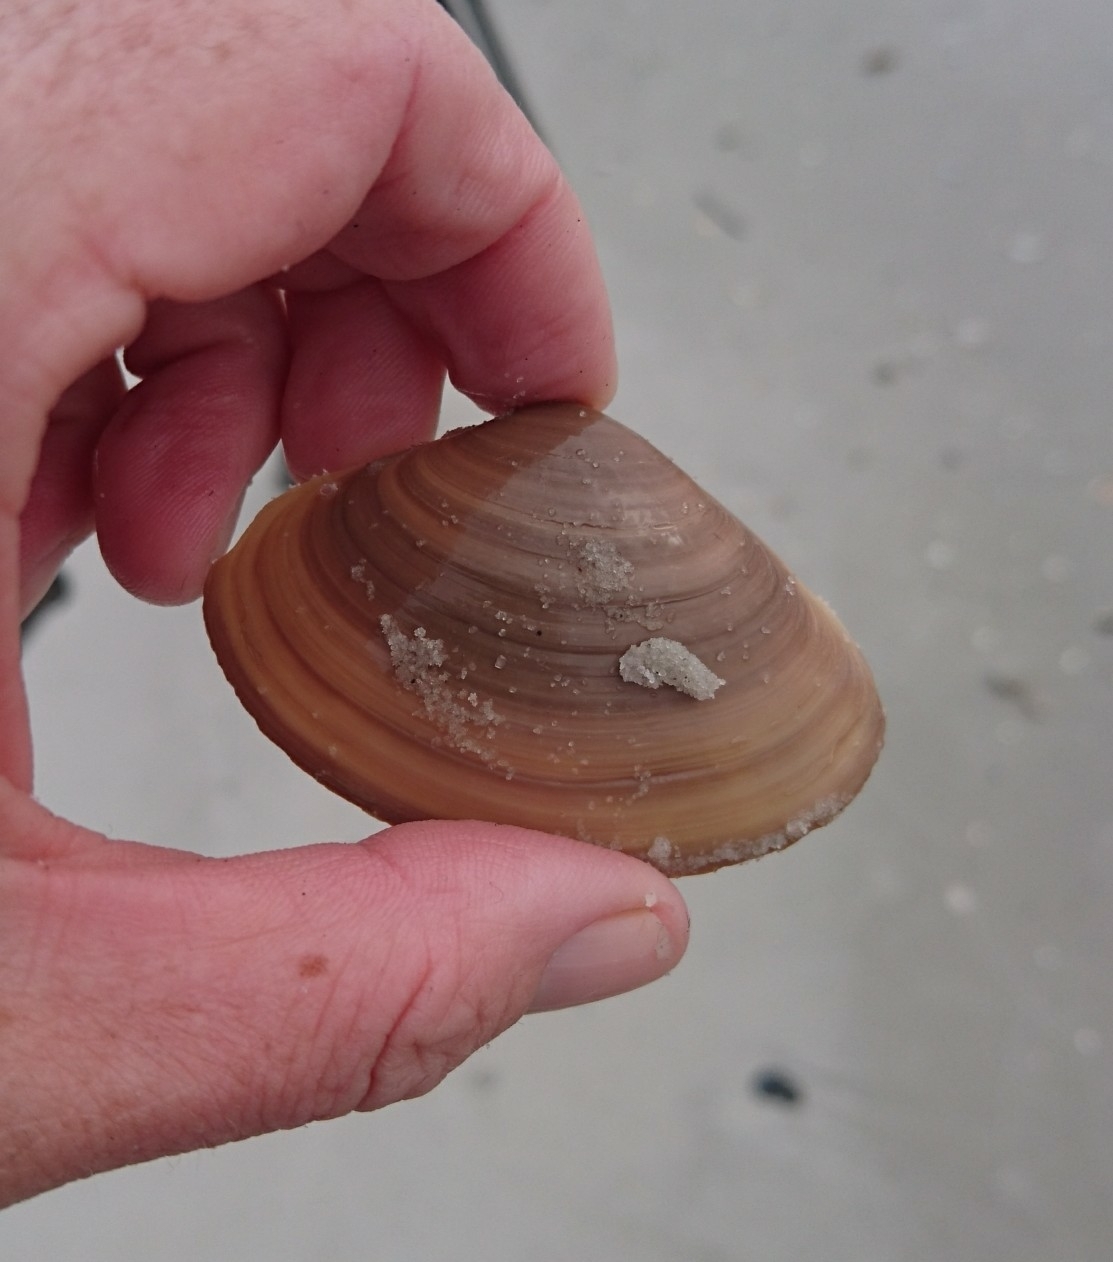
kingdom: Animalia
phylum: Mollusca
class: Bivalvia
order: Venerida
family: Mactridae
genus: Spisula
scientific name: Spisula raveneli
